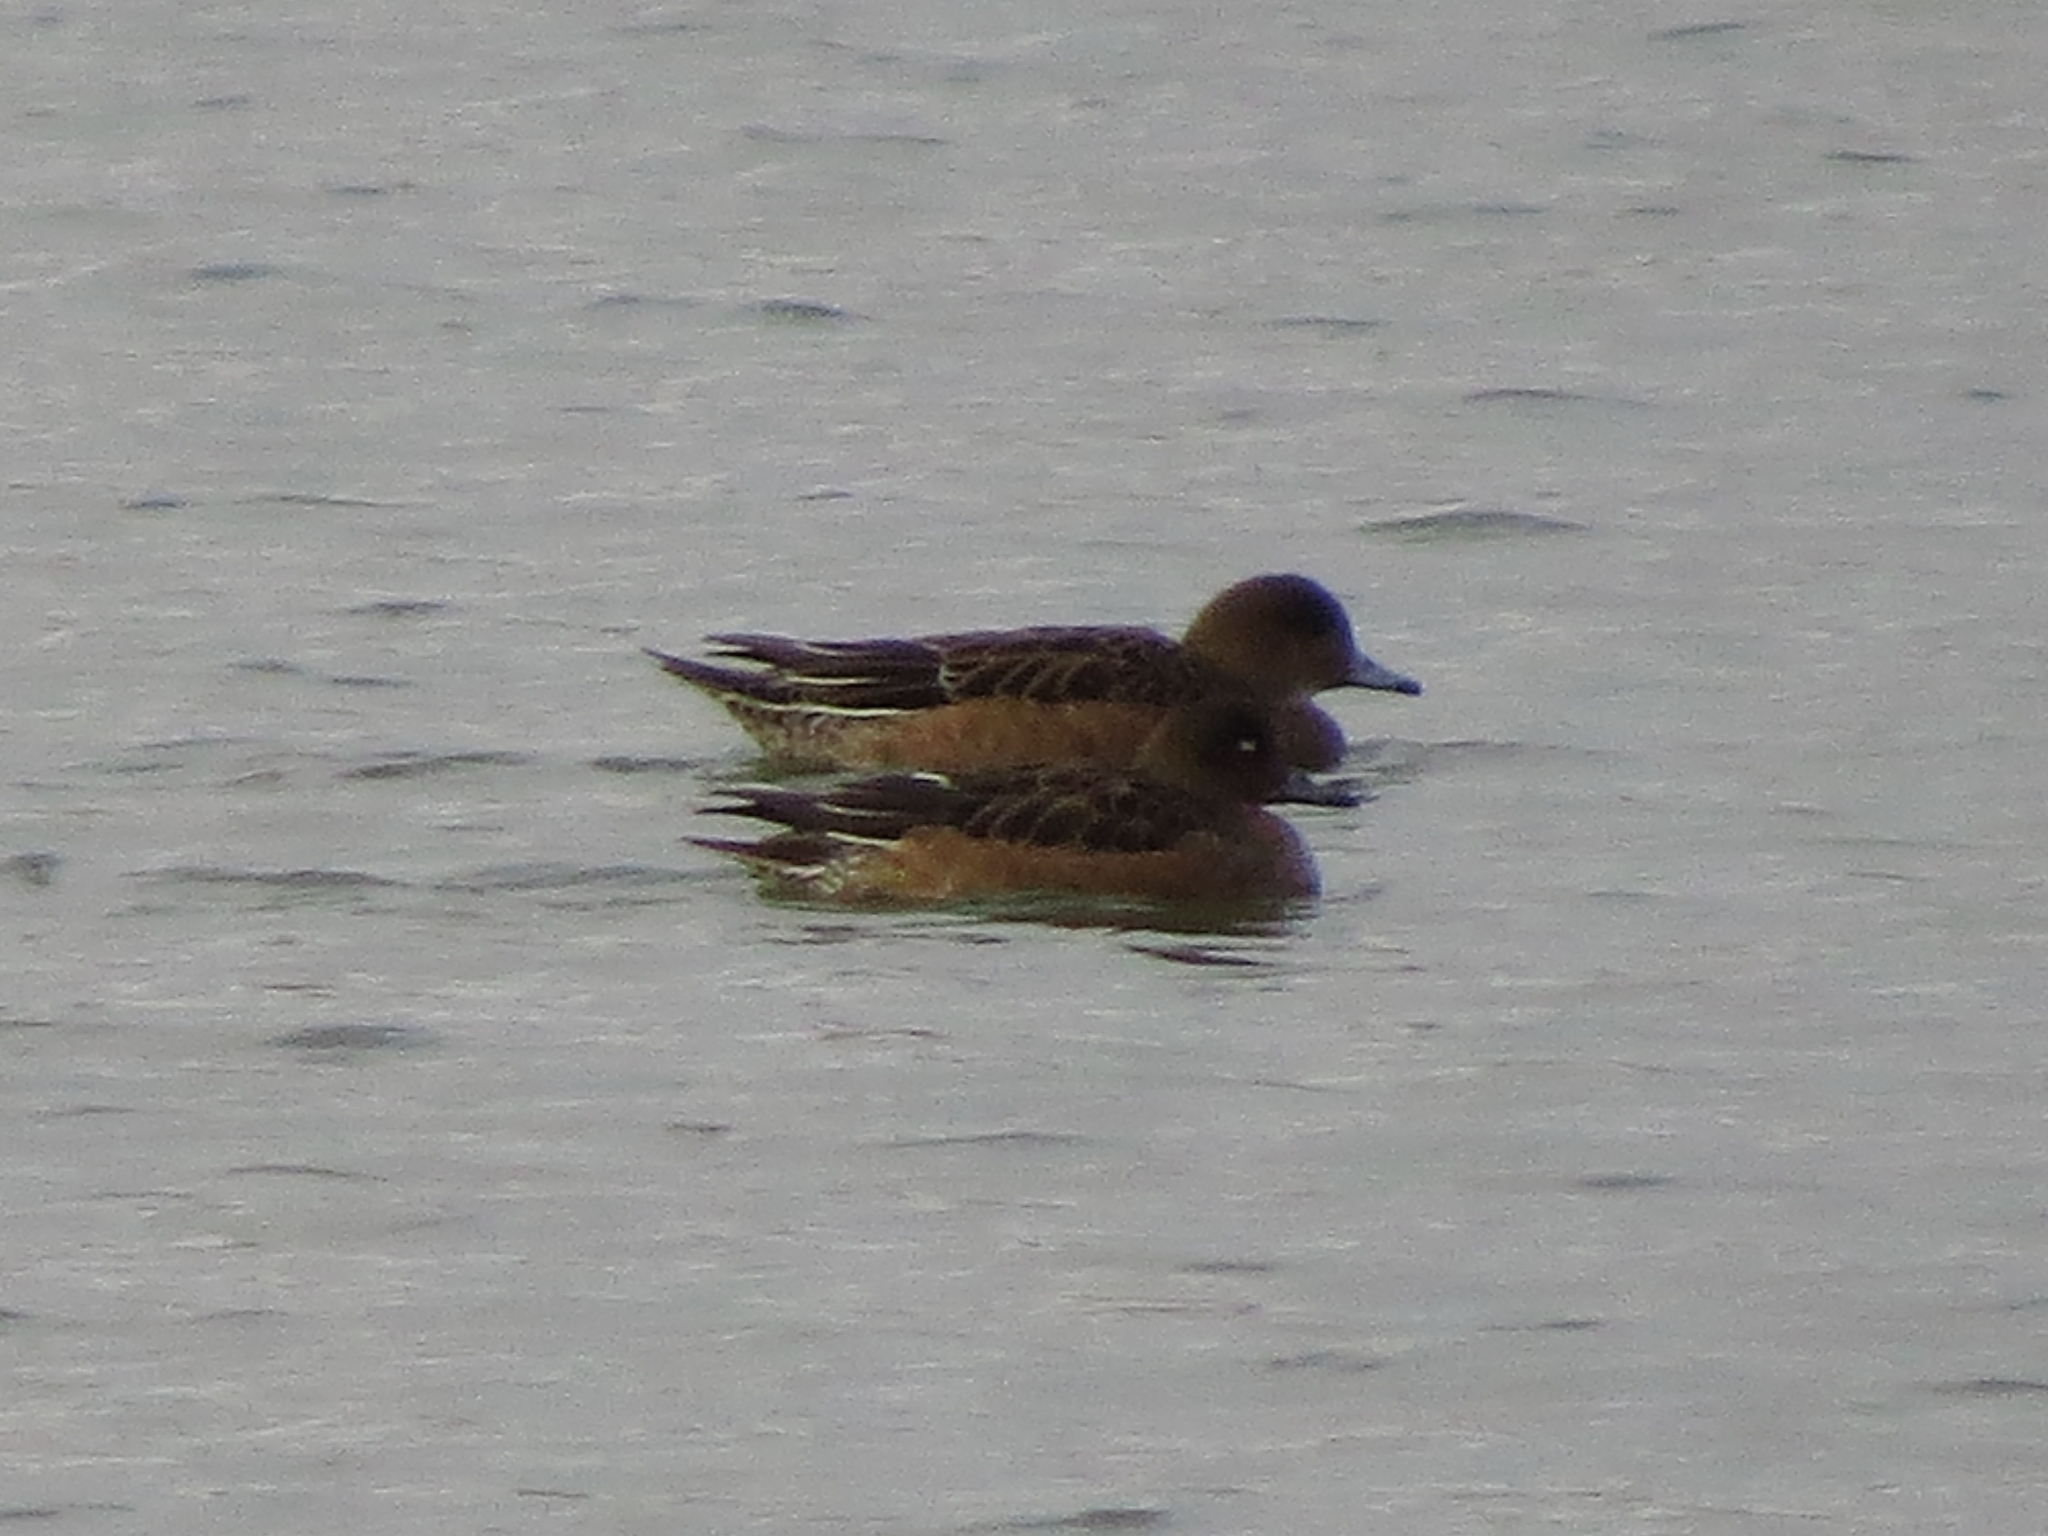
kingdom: Animalia
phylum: Chordata
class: Aves
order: Anseriformes
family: Anatidae
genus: Mareca
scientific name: Mareca penelope
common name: Eurasian wigeon
